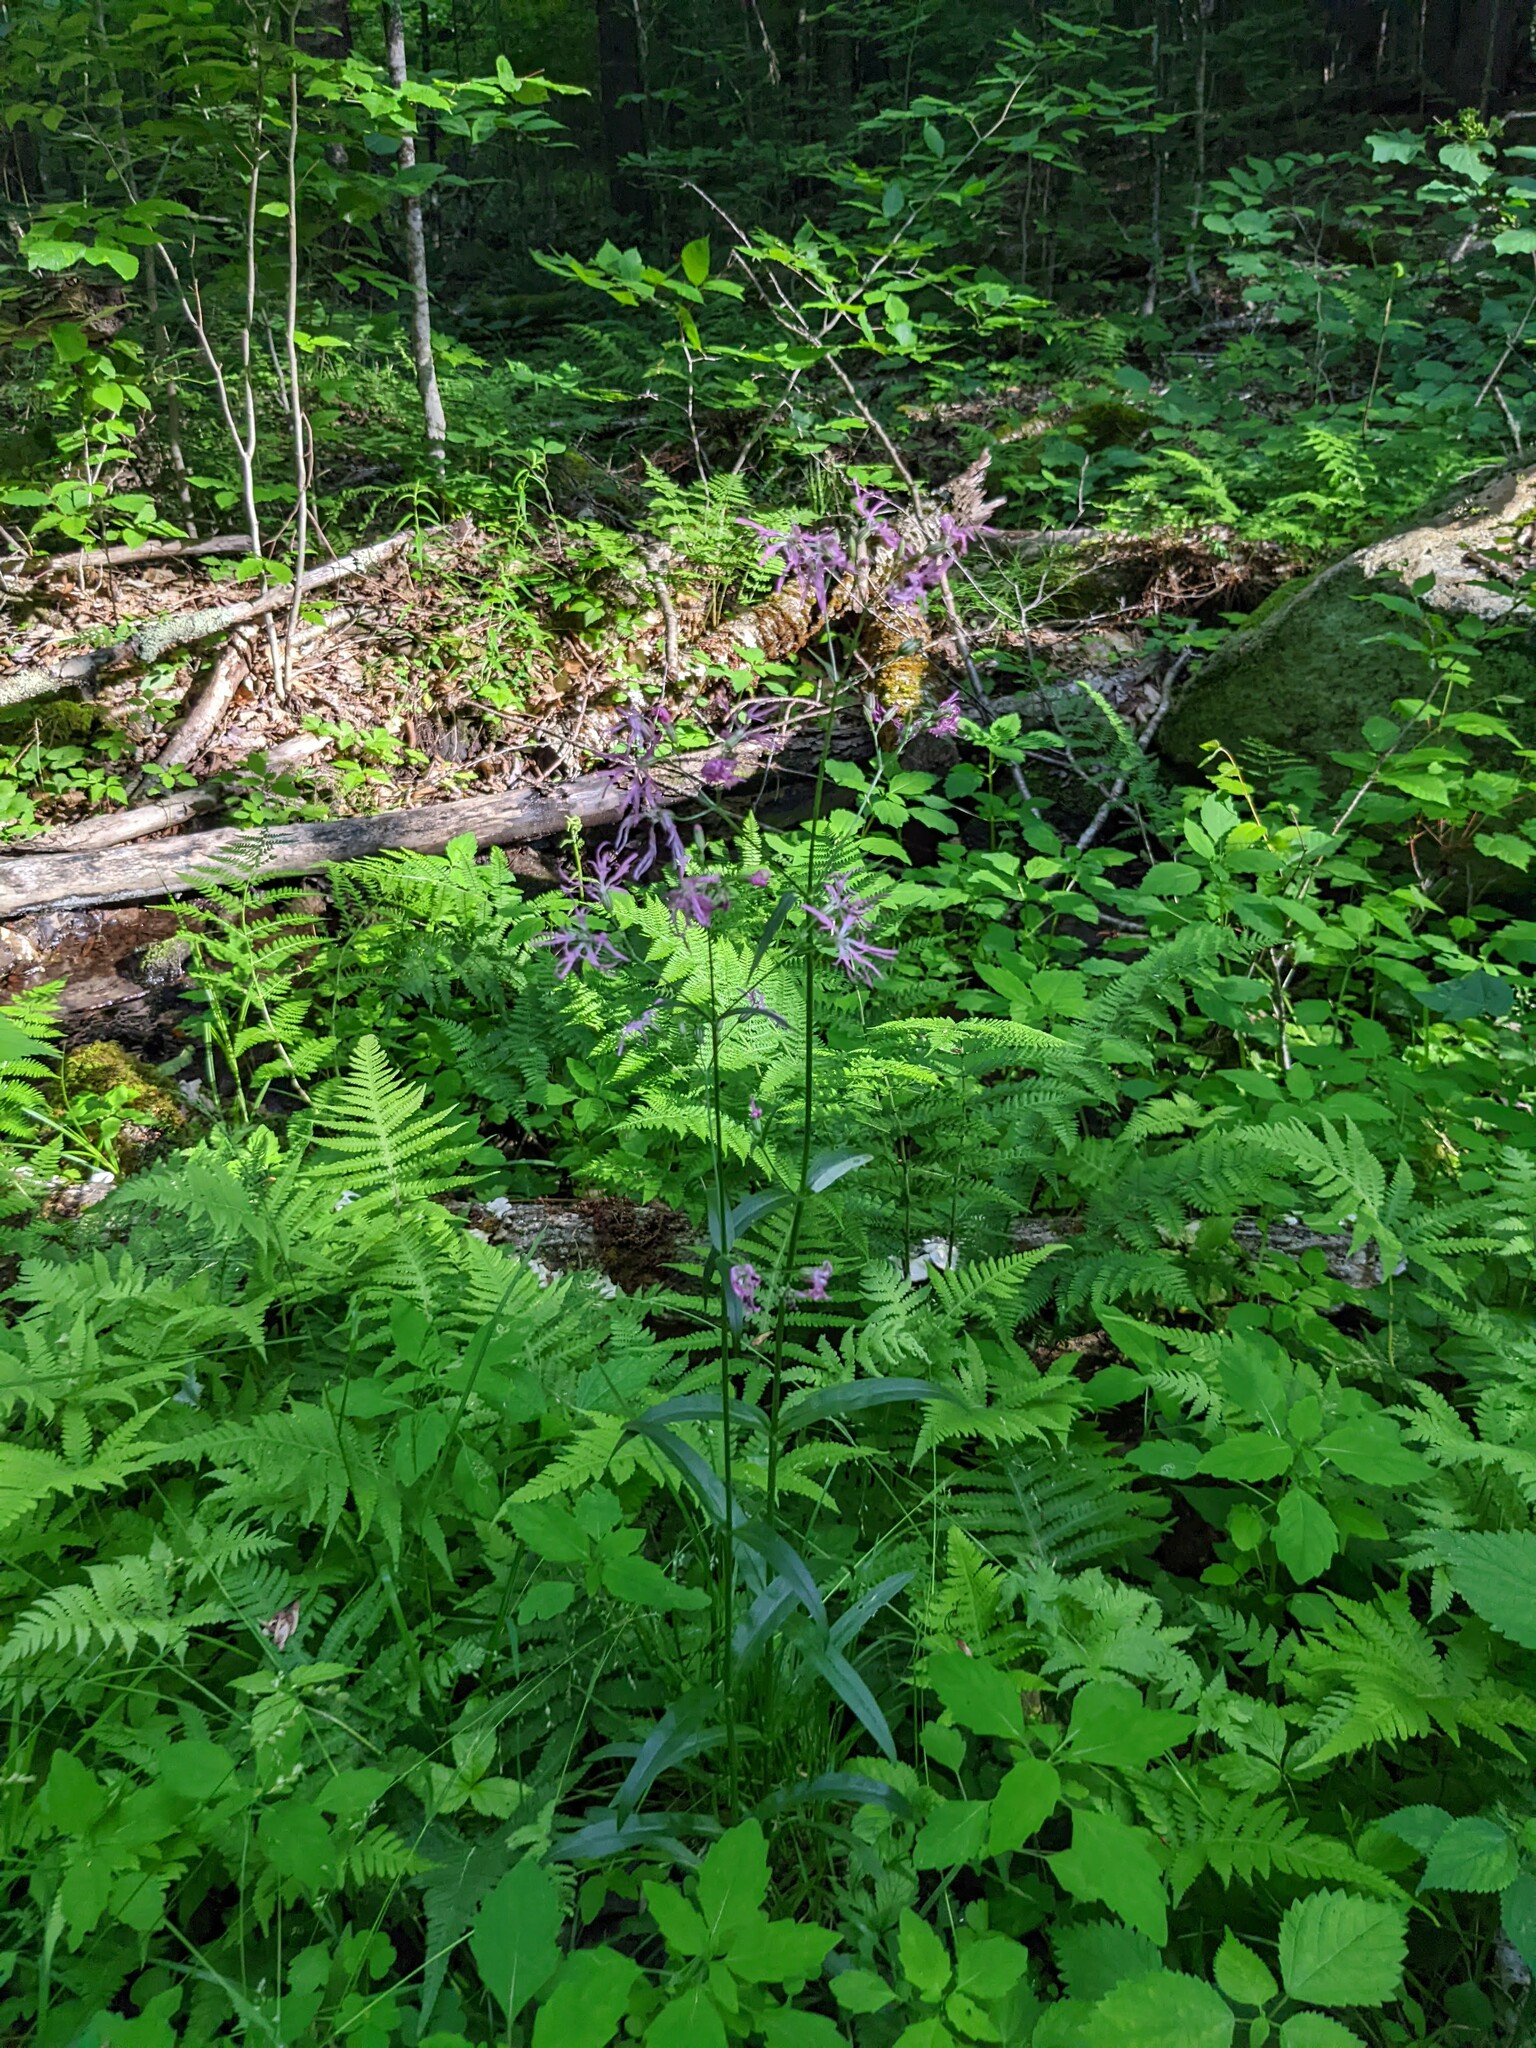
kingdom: Plantae
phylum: Tracheophyta
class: Magnoliopsida
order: Caryophyllales
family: Caryophyllaceae
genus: Silene
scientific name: Silene flos-cuculi
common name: Ragged-robin
